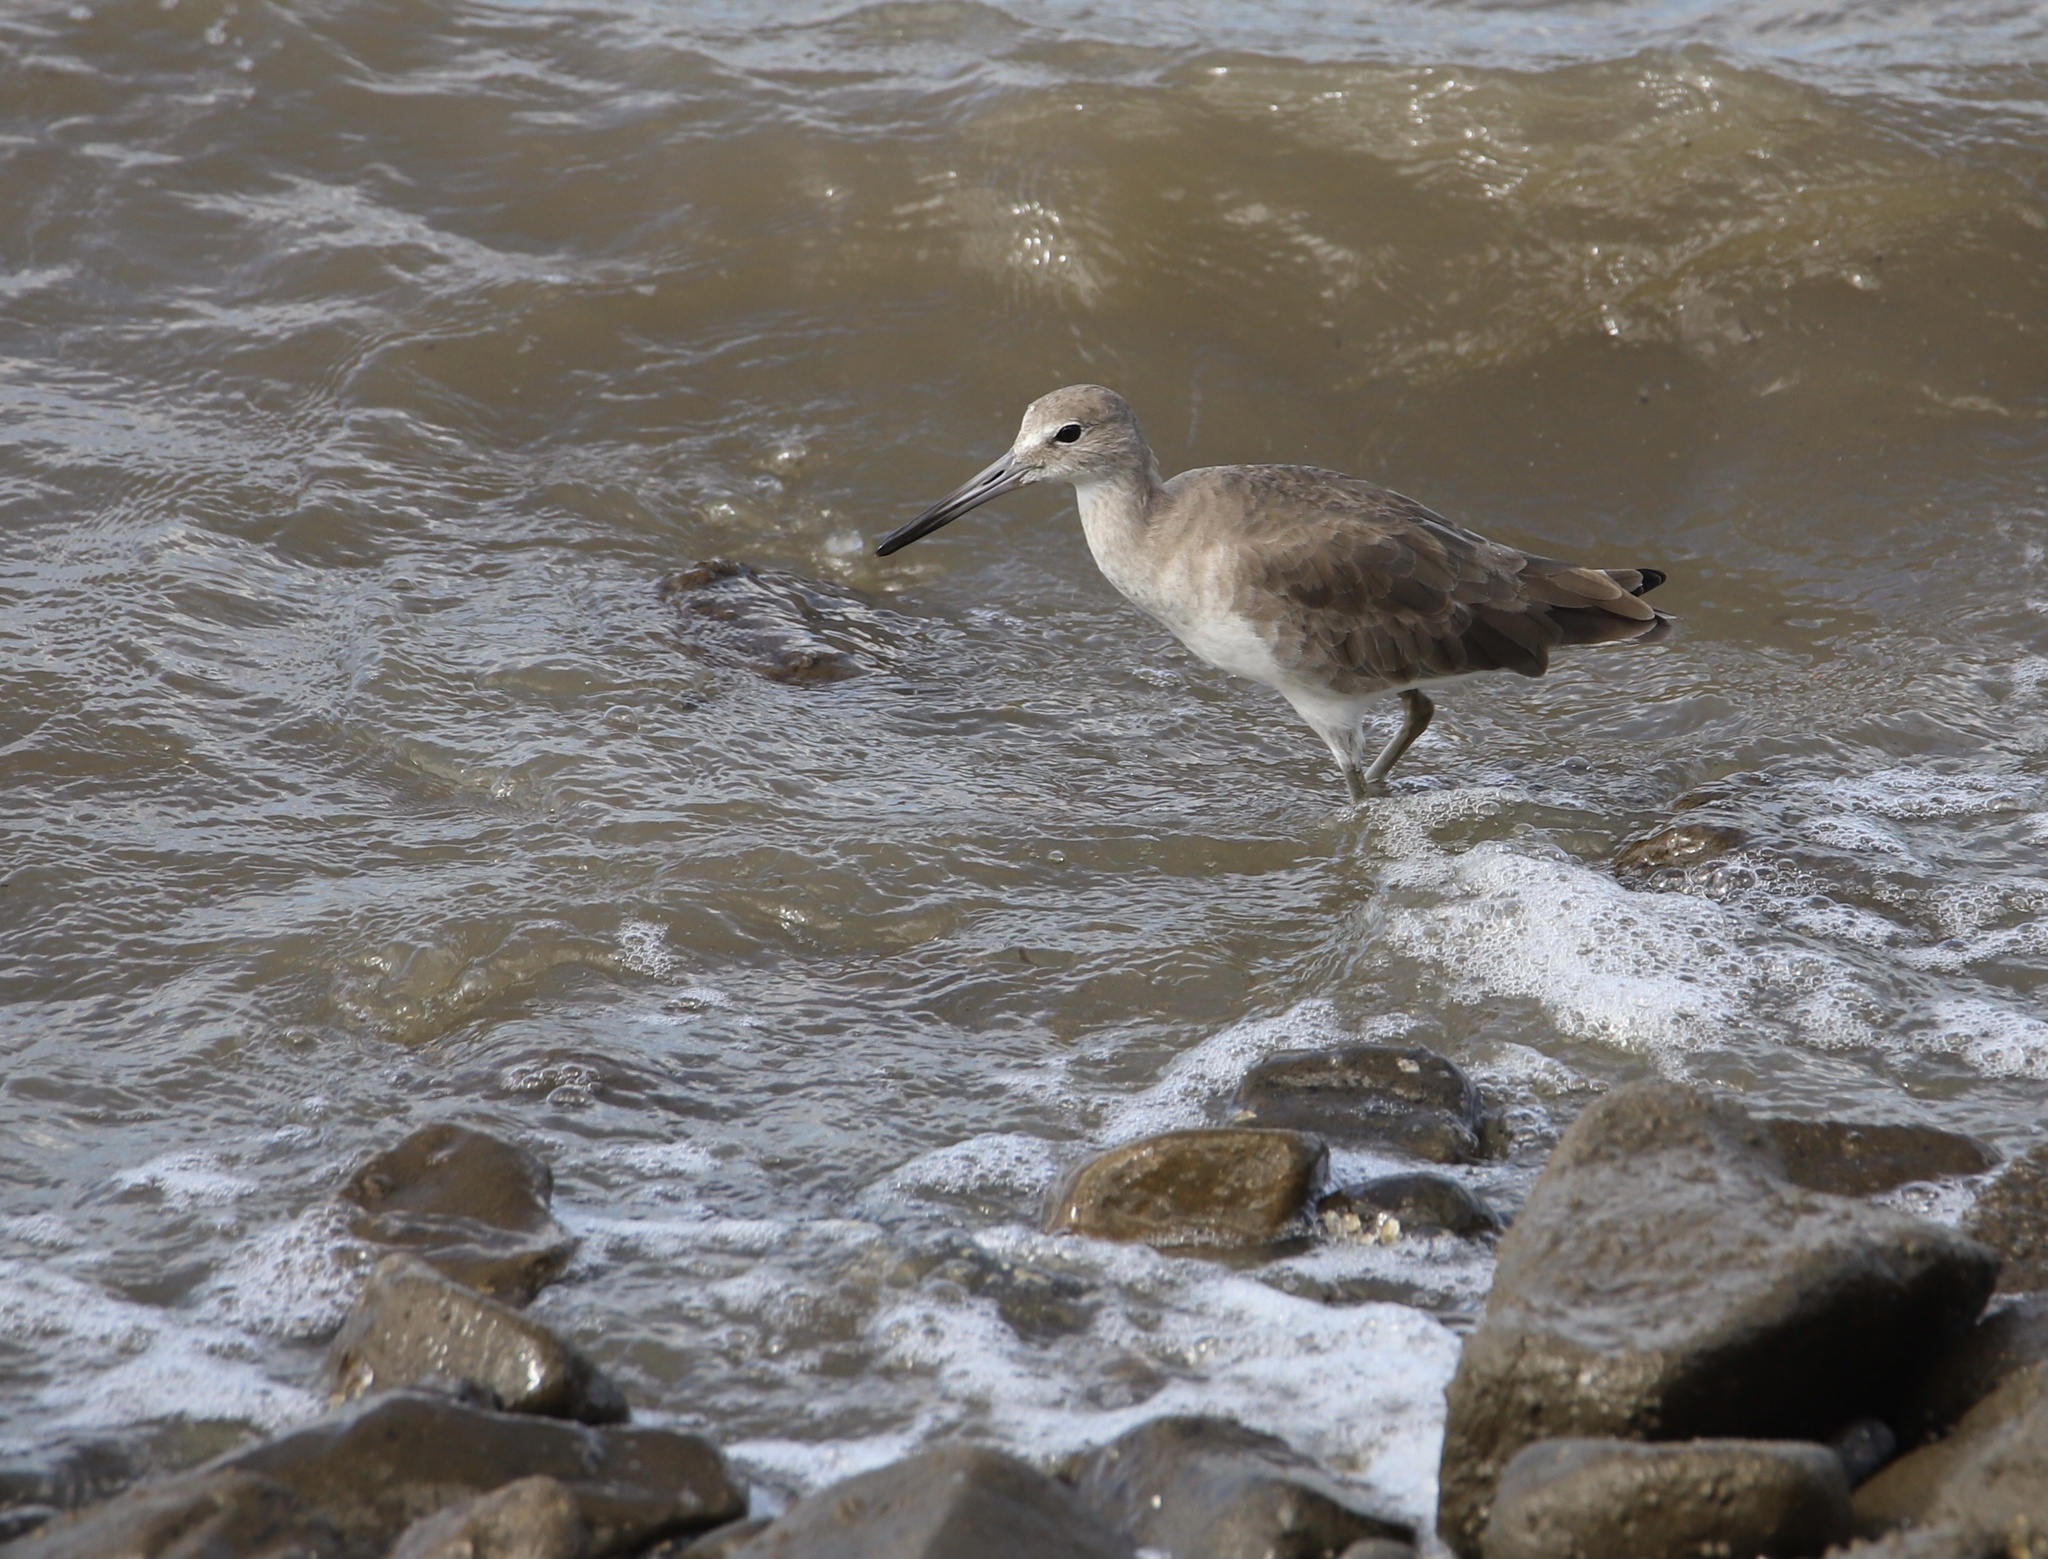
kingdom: Animalia
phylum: Chordata
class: Aves
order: Charadriiformes
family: Scolopacidae
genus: Tringa
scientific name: Tringa semipalmata
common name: Willet
